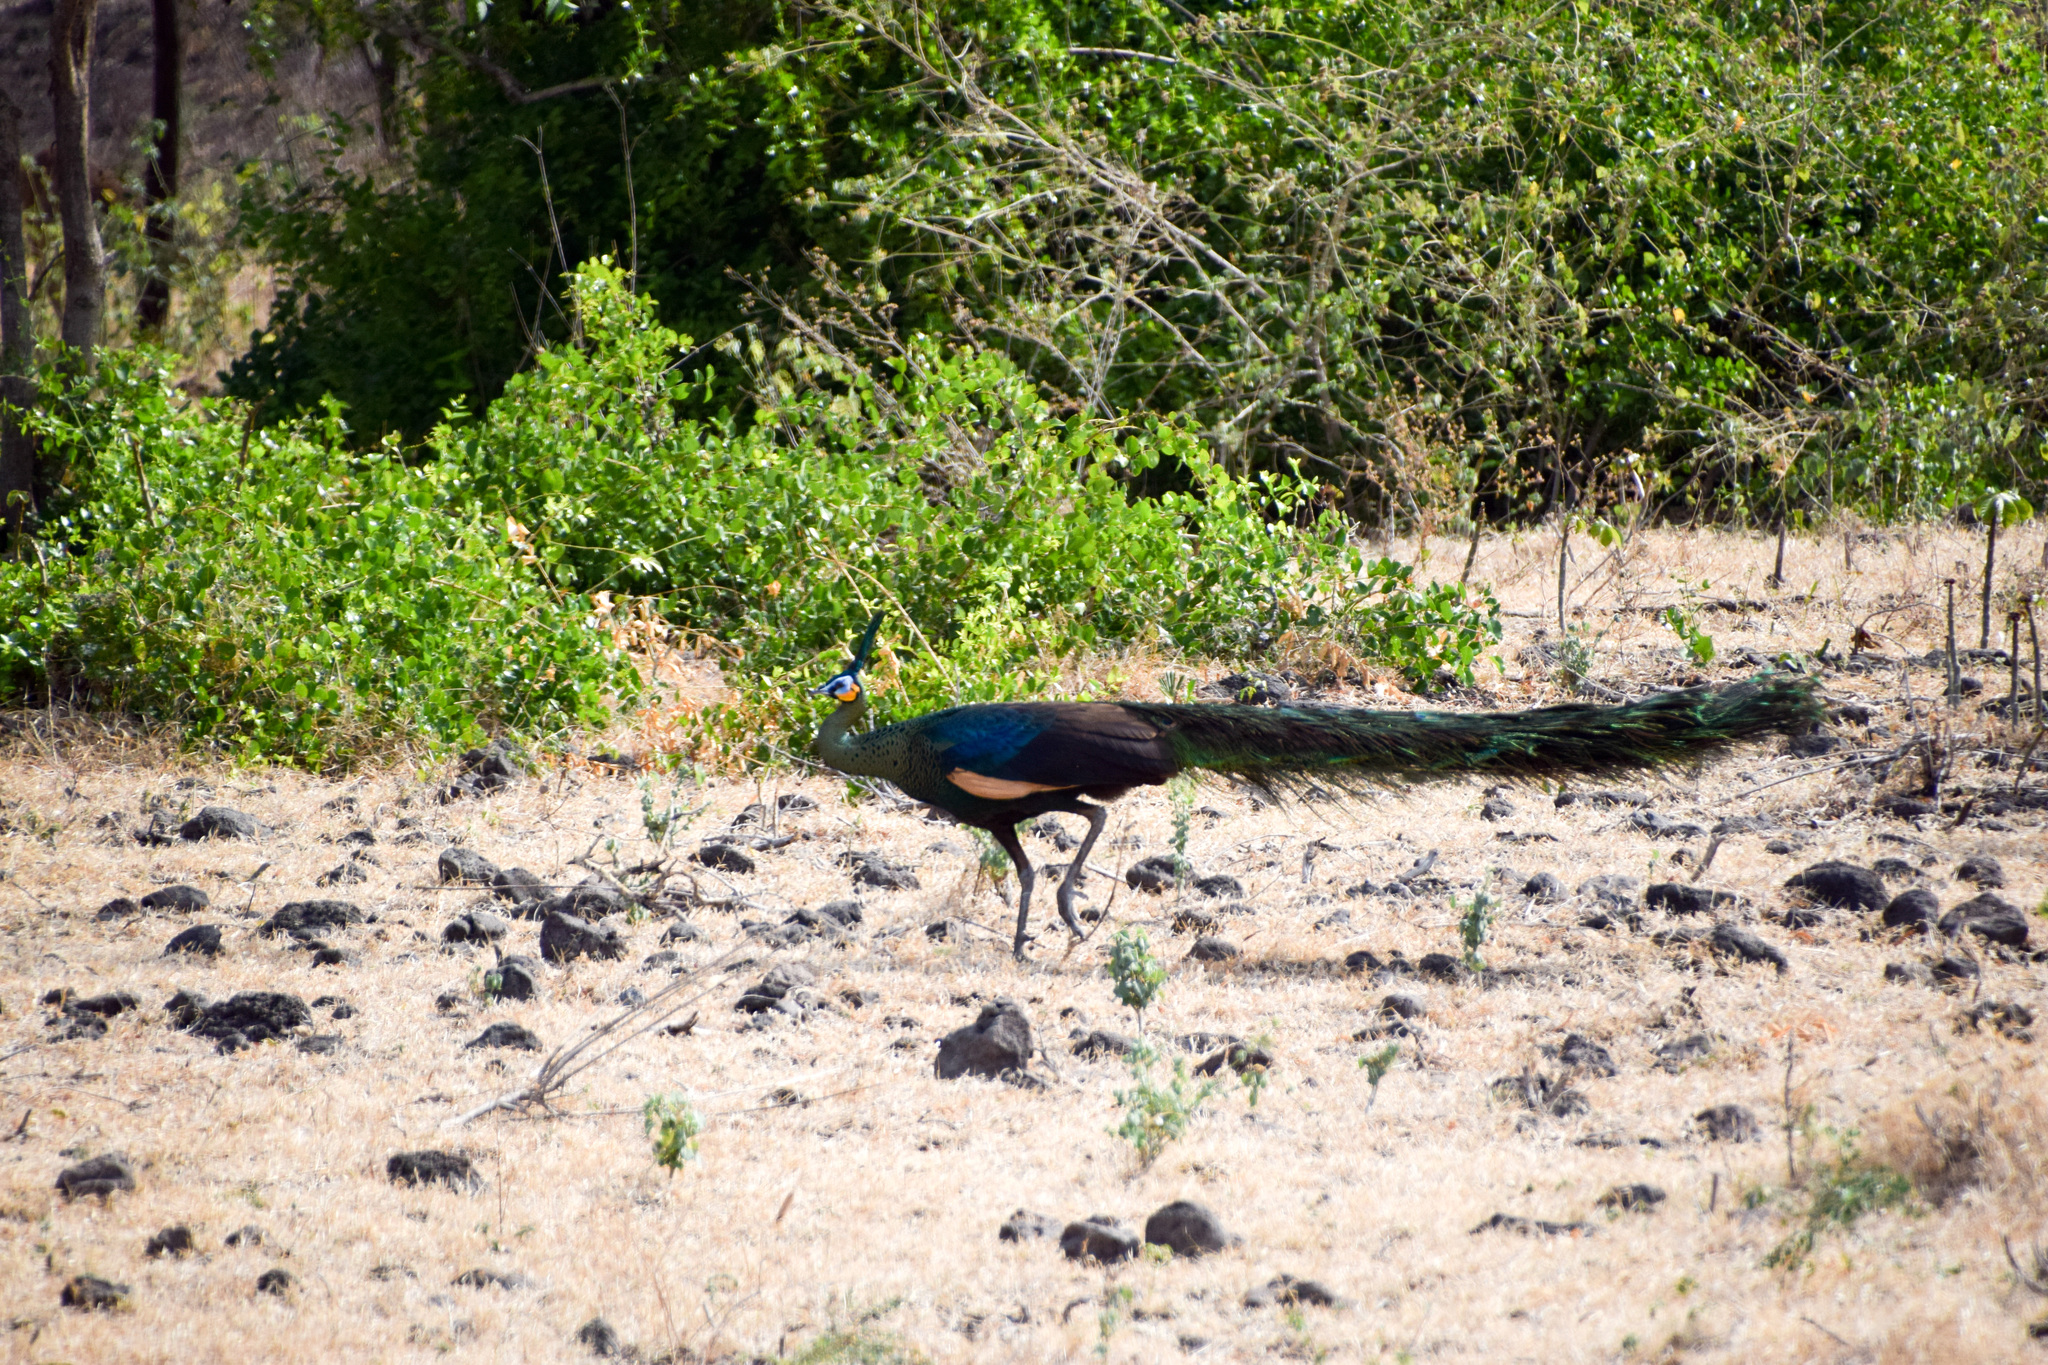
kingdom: Animalia
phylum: Chordata
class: Aves
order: Galliformes
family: Phasianidae
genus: Pavo
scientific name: Pavo muticus
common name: Green peafowl
